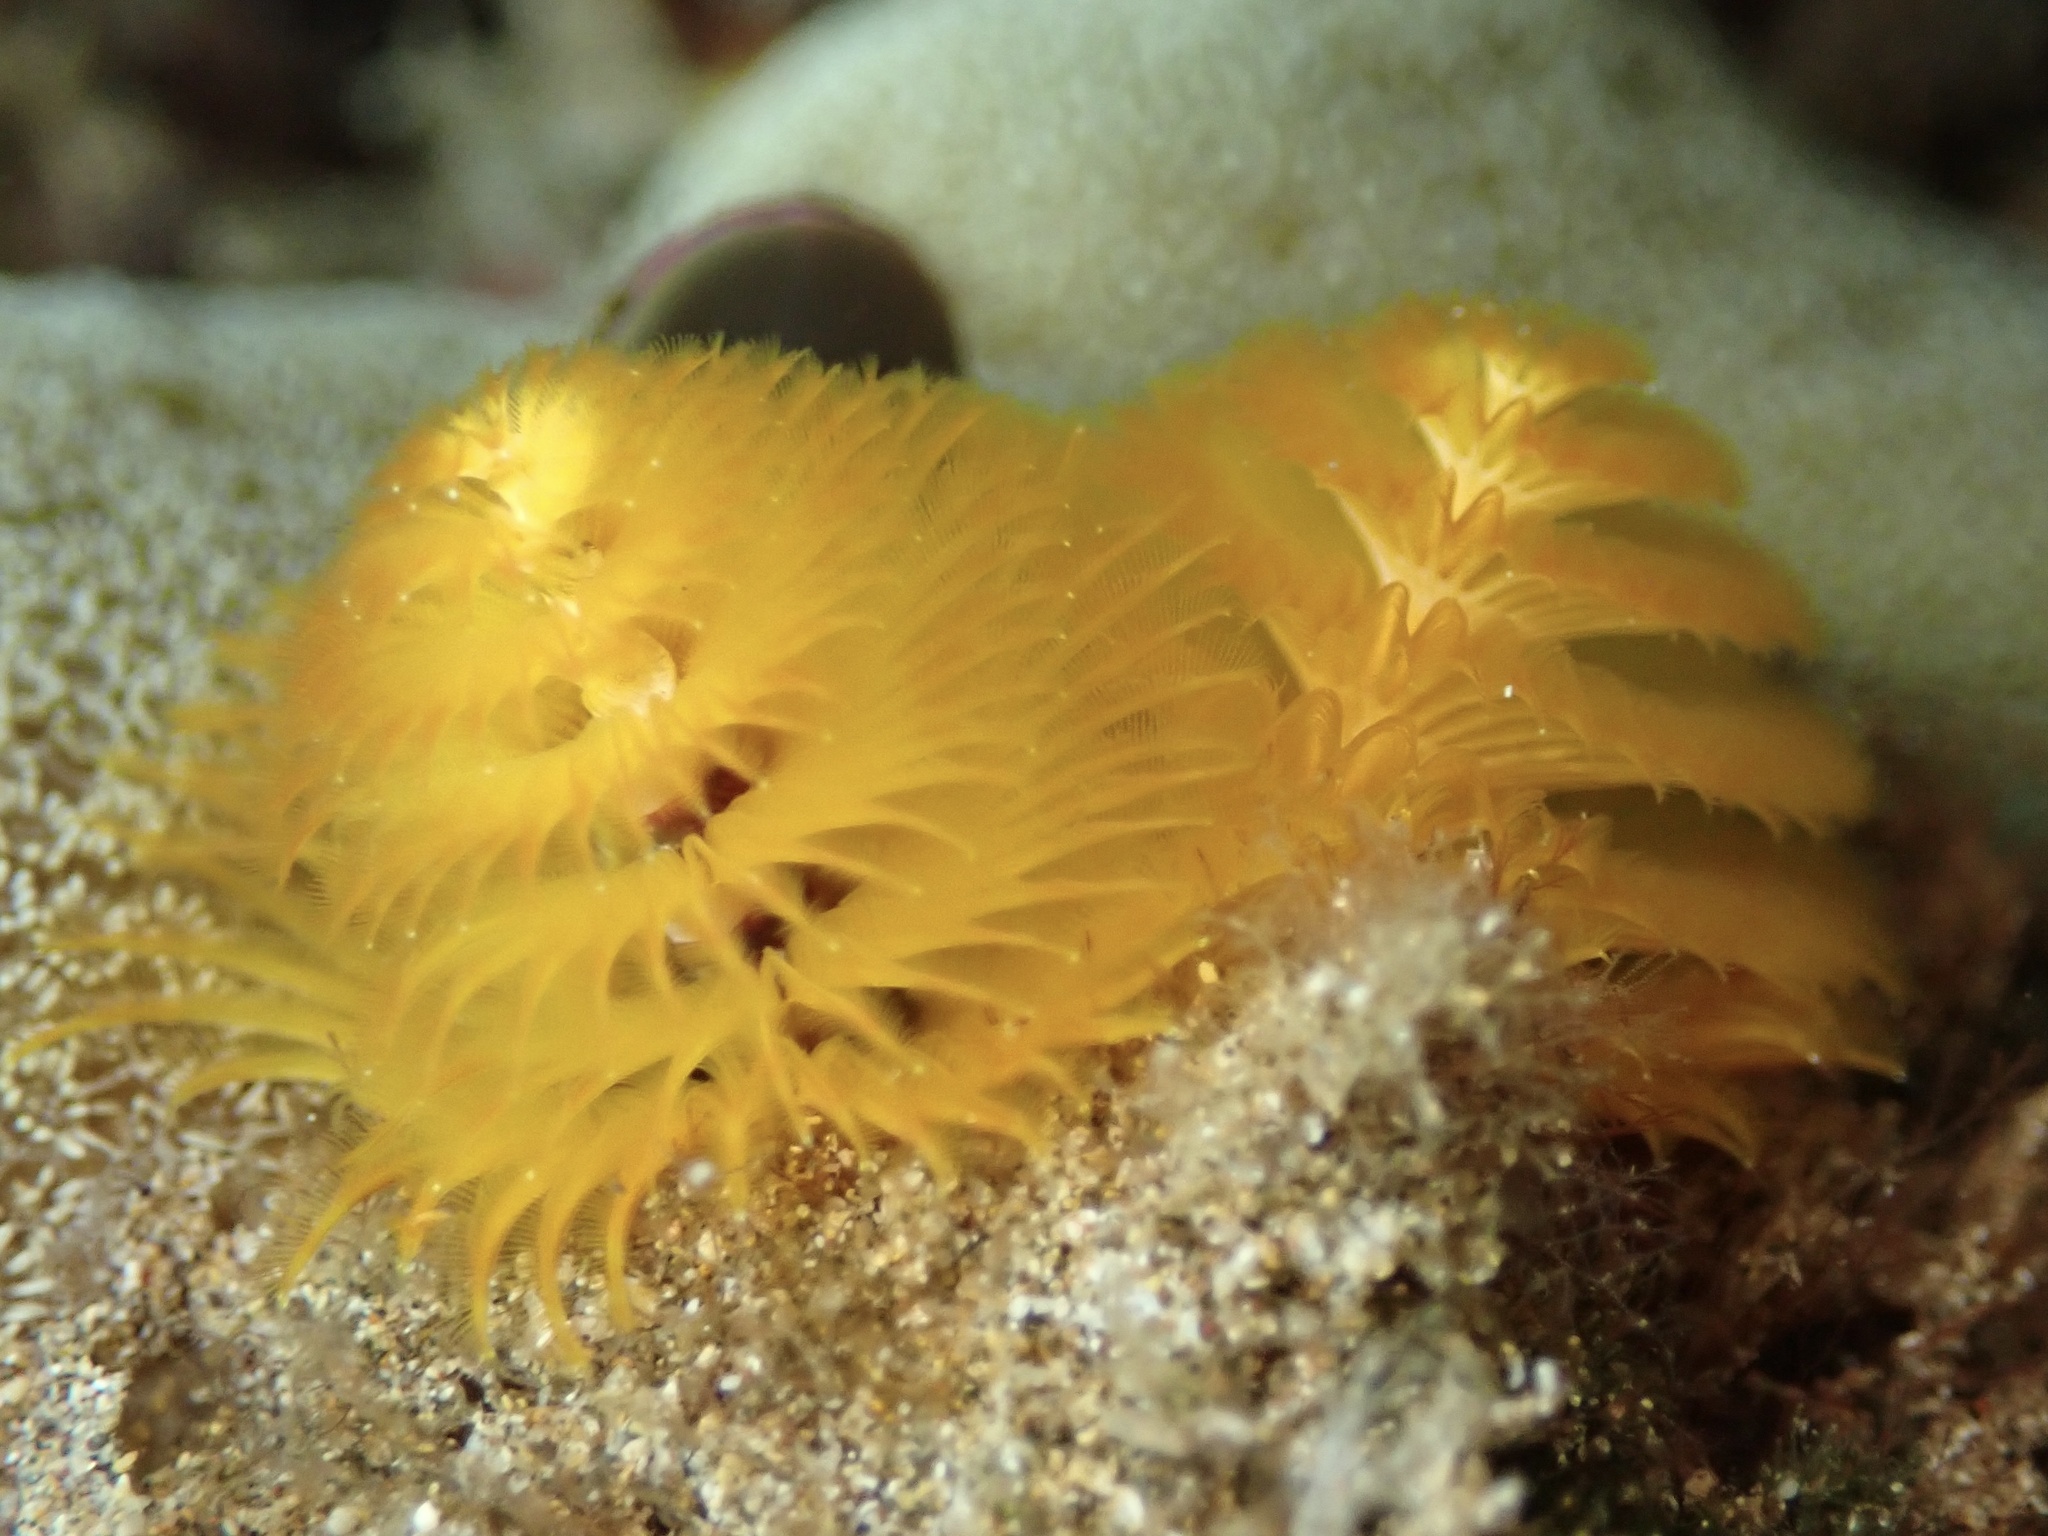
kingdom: Animalia
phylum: Annelida
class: Polychaeta
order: Sabellida
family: Serpulidae
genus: Spirobranchus
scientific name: Spirobranchus
